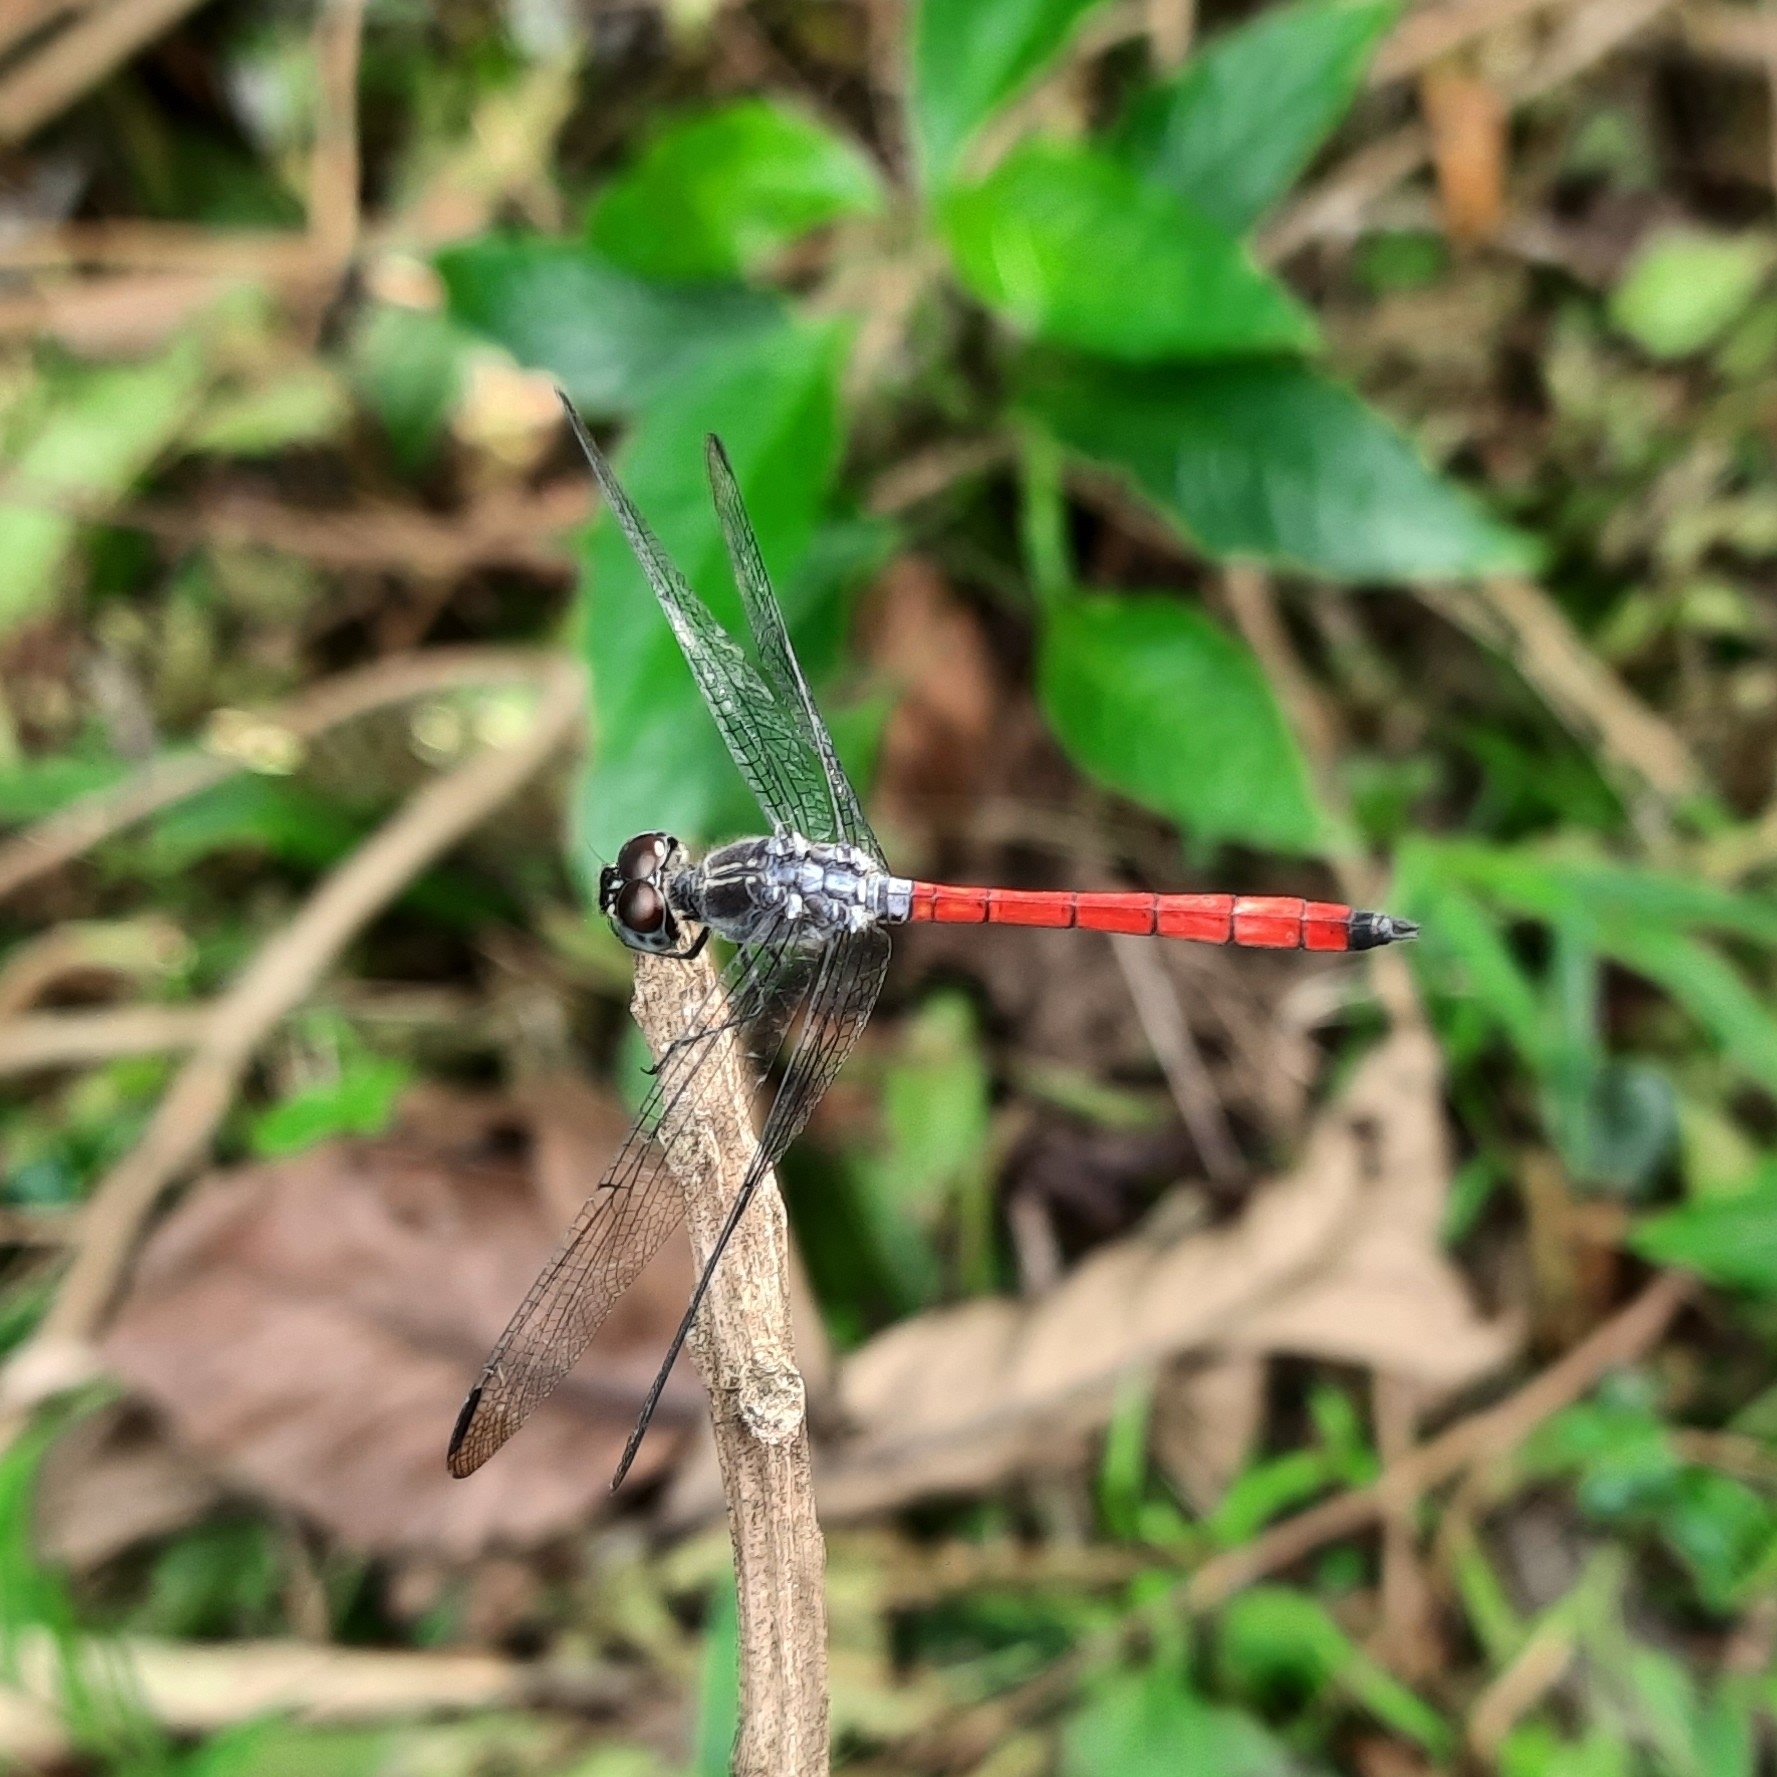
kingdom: Animalia
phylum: Arthropoda
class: Insecta
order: Odonata
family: Libellulidae
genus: Lathrecista
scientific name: Lathrecista asiatica
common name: Scarlet grenadier
